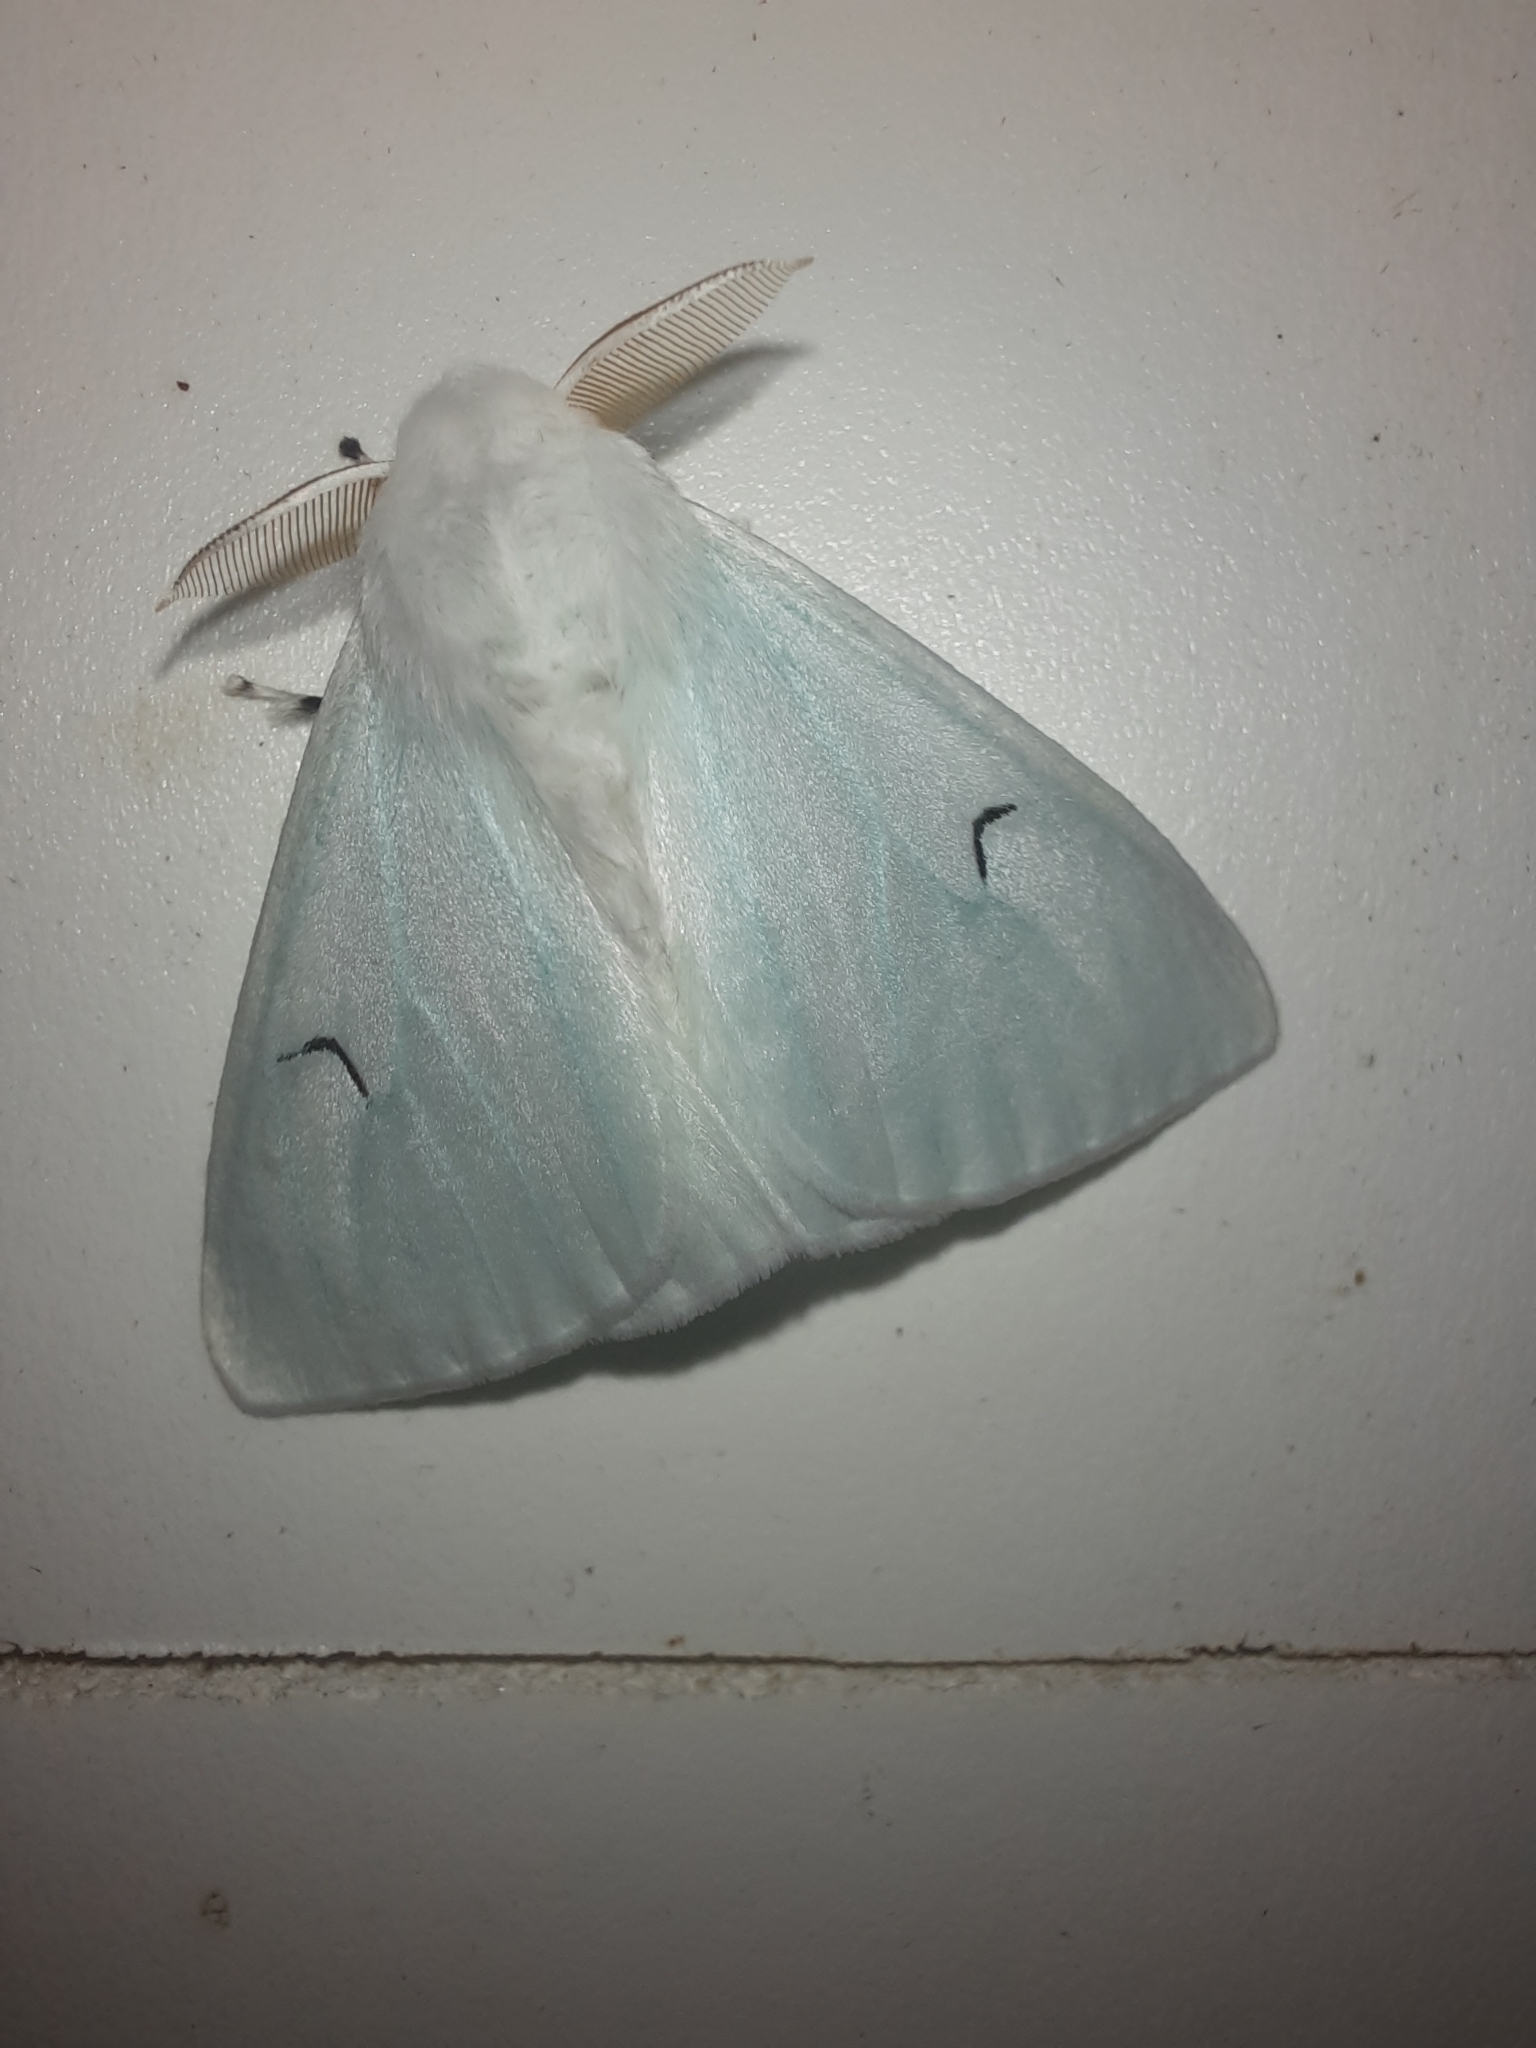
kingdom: Animalia
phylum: Arthropoda
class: Insecta
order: Lepidoptera
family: Erebidae
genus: Arctornis
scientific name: Arctornis l-nigrum
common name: Black v moth
